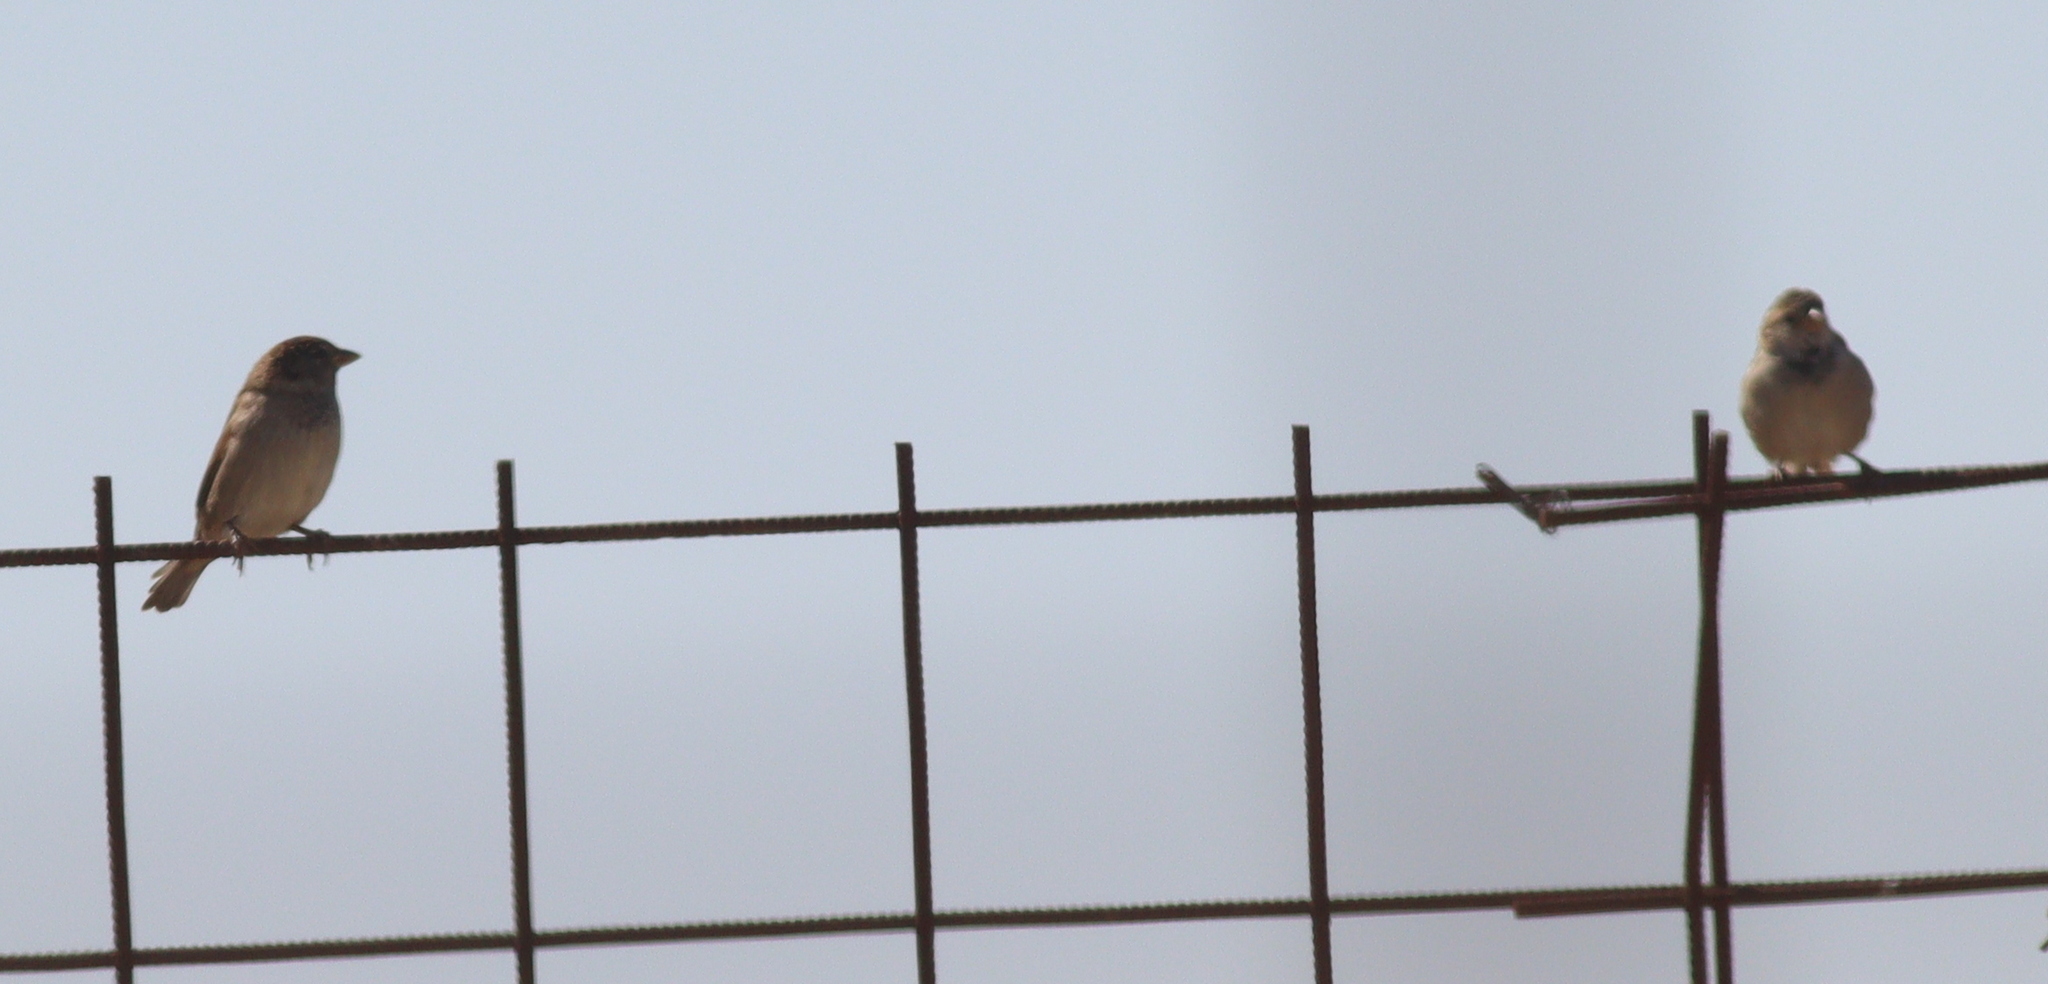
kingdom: Animalia
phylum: Chordata
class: Aves
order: Passeriformes
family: Passeridae
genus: Passer
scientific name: Passer domesticus
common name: House sparrow
